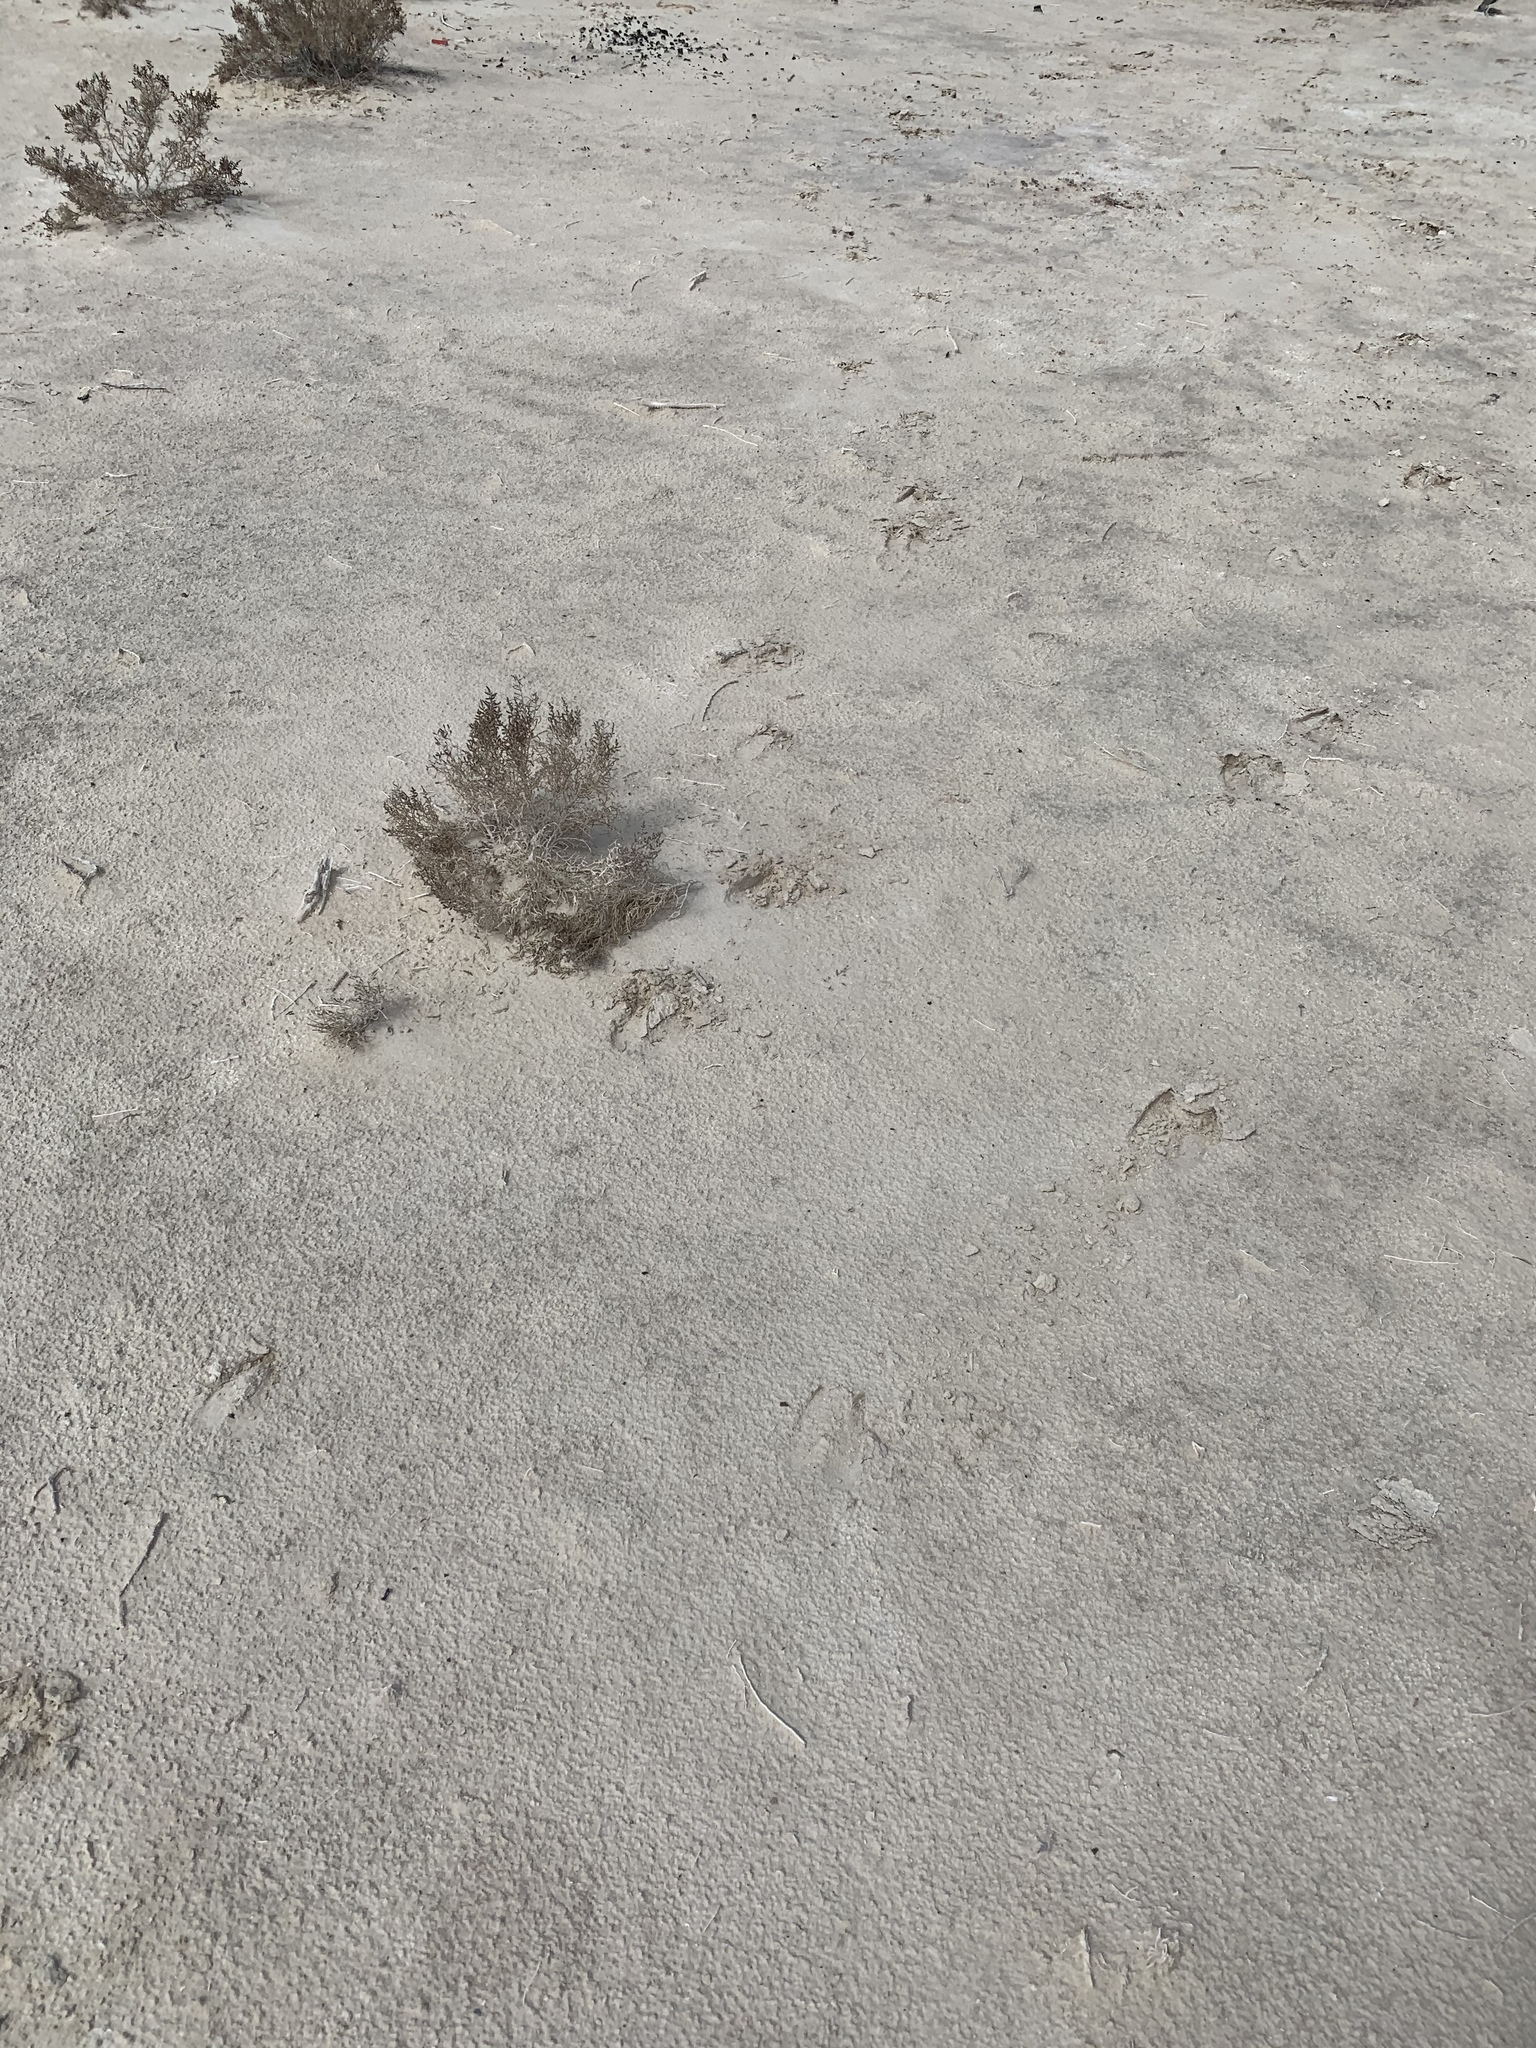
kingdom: Animalia
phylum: Chordata
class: Mammalia
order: Artiodactyla
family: Bovidae
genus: Oryx
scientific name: Oryx gazella
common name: Gemsbok
